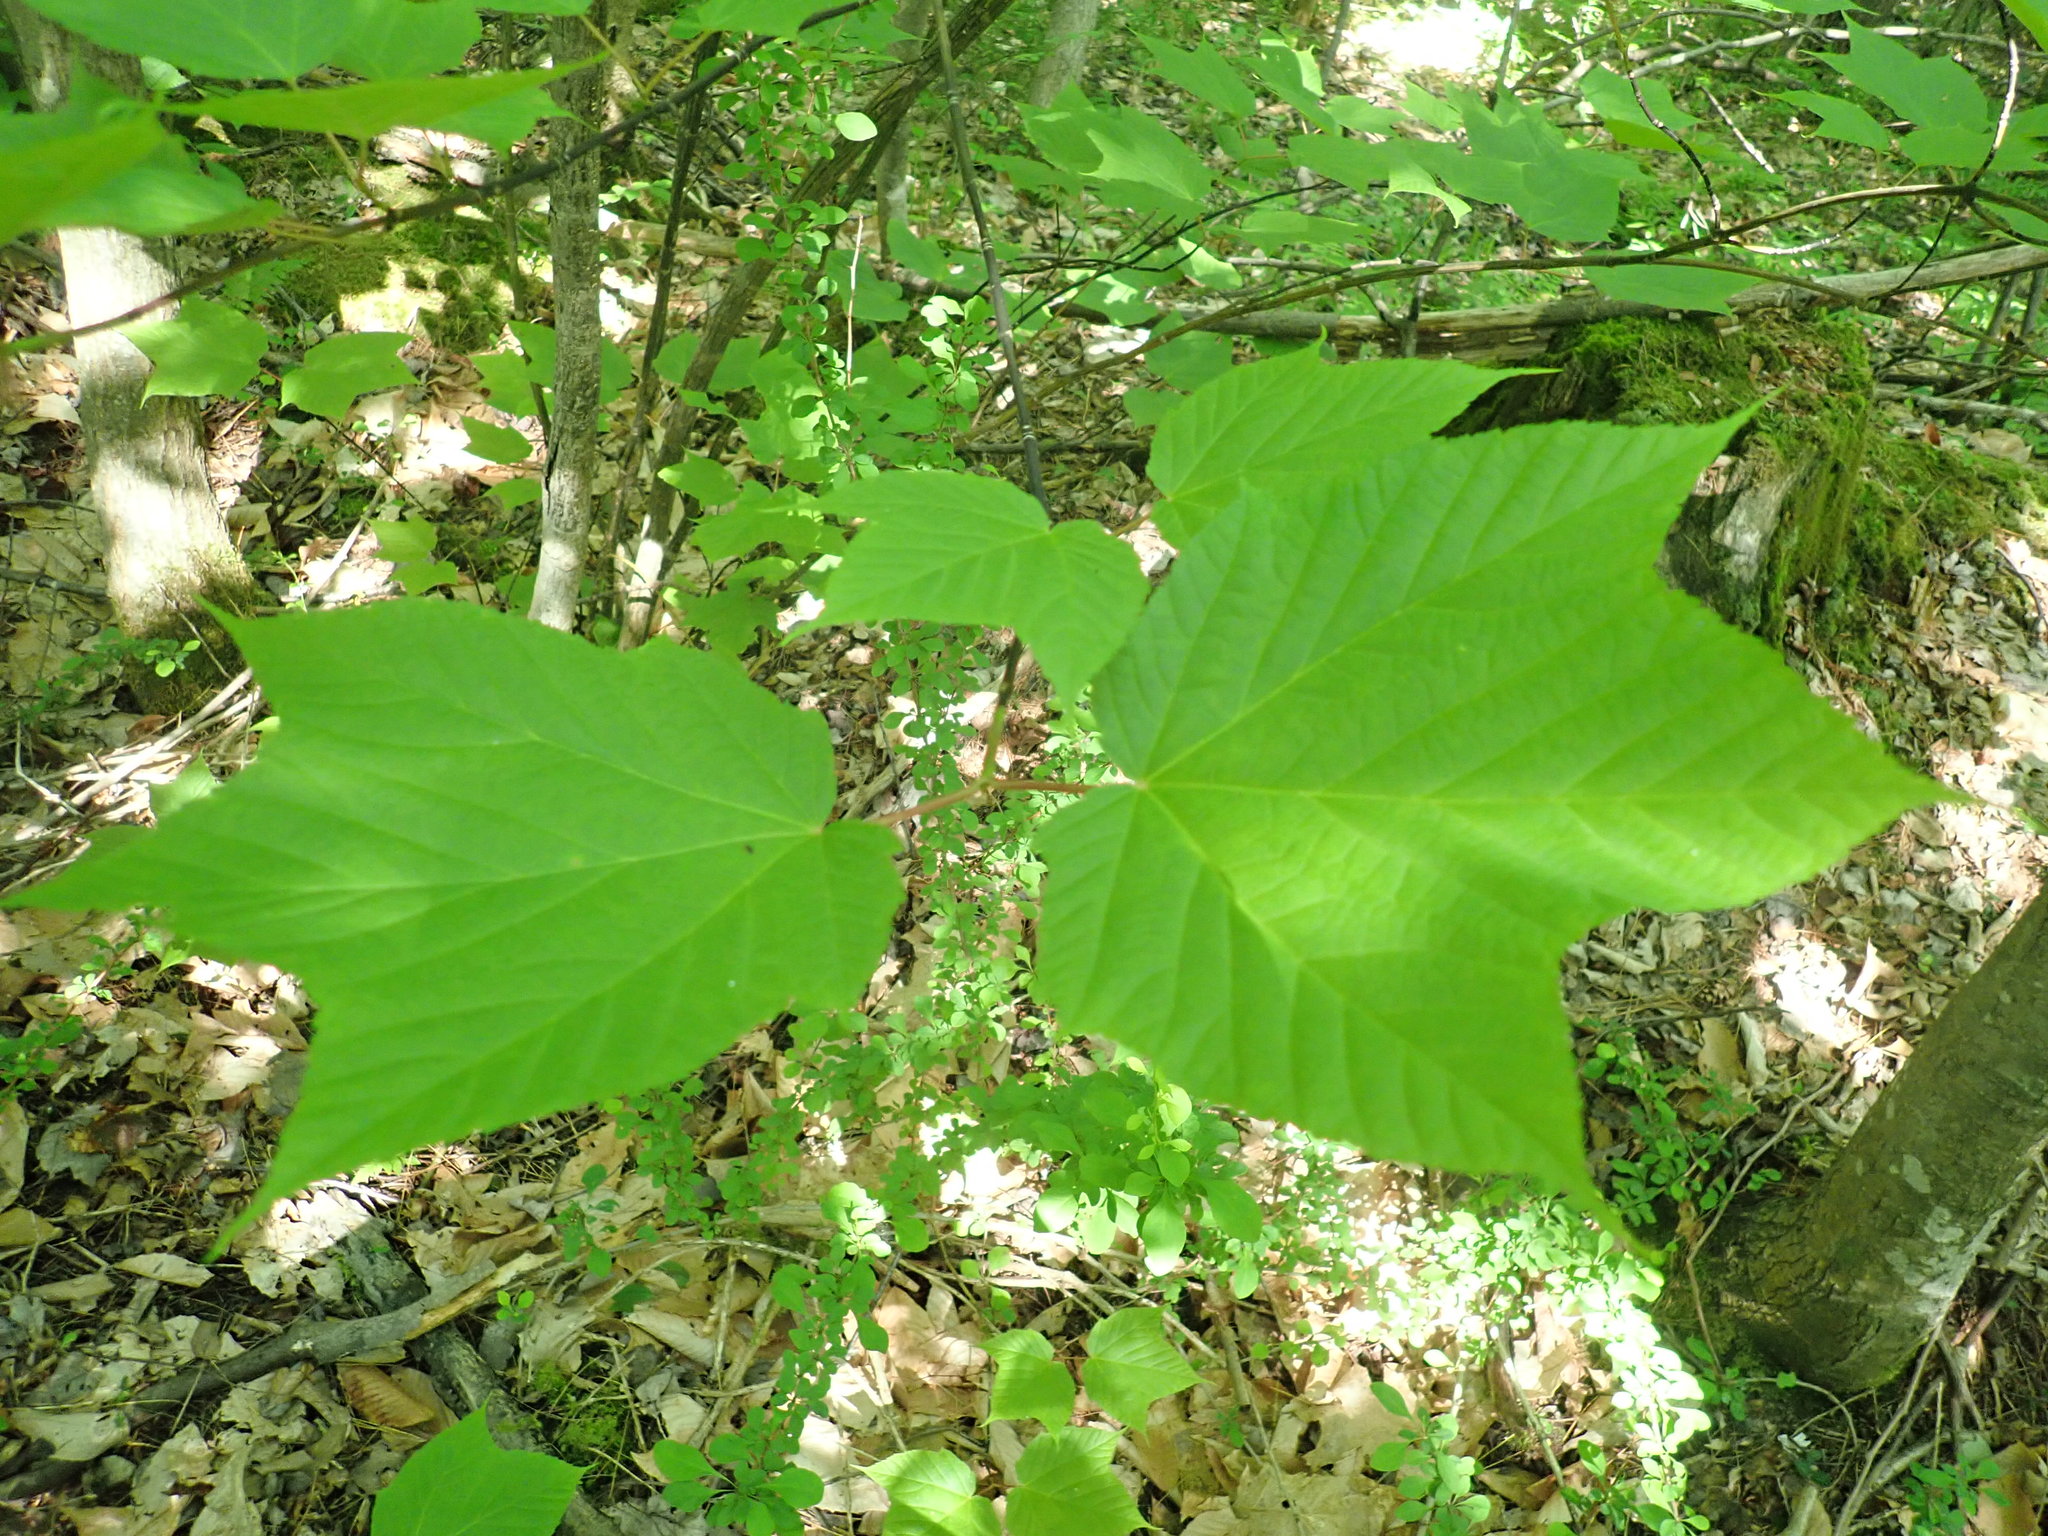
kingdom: Plantae
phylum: Tracheophyta
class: Magnoliopsida
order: Sapindales
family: Sapindaceae
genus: Acer
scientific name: Acer pensylvanicum
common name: Moosewood
